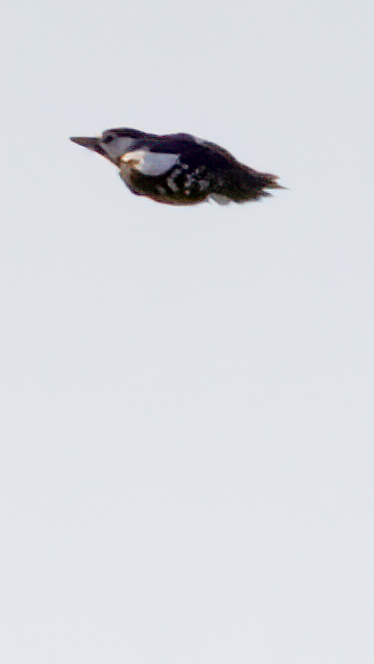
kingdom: Animalia
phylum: Chordata
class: Aves
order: Piciformes
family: Picidae
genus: Dendrocopos
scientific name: Dendrocopos major
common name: Great spotted woodpecker
